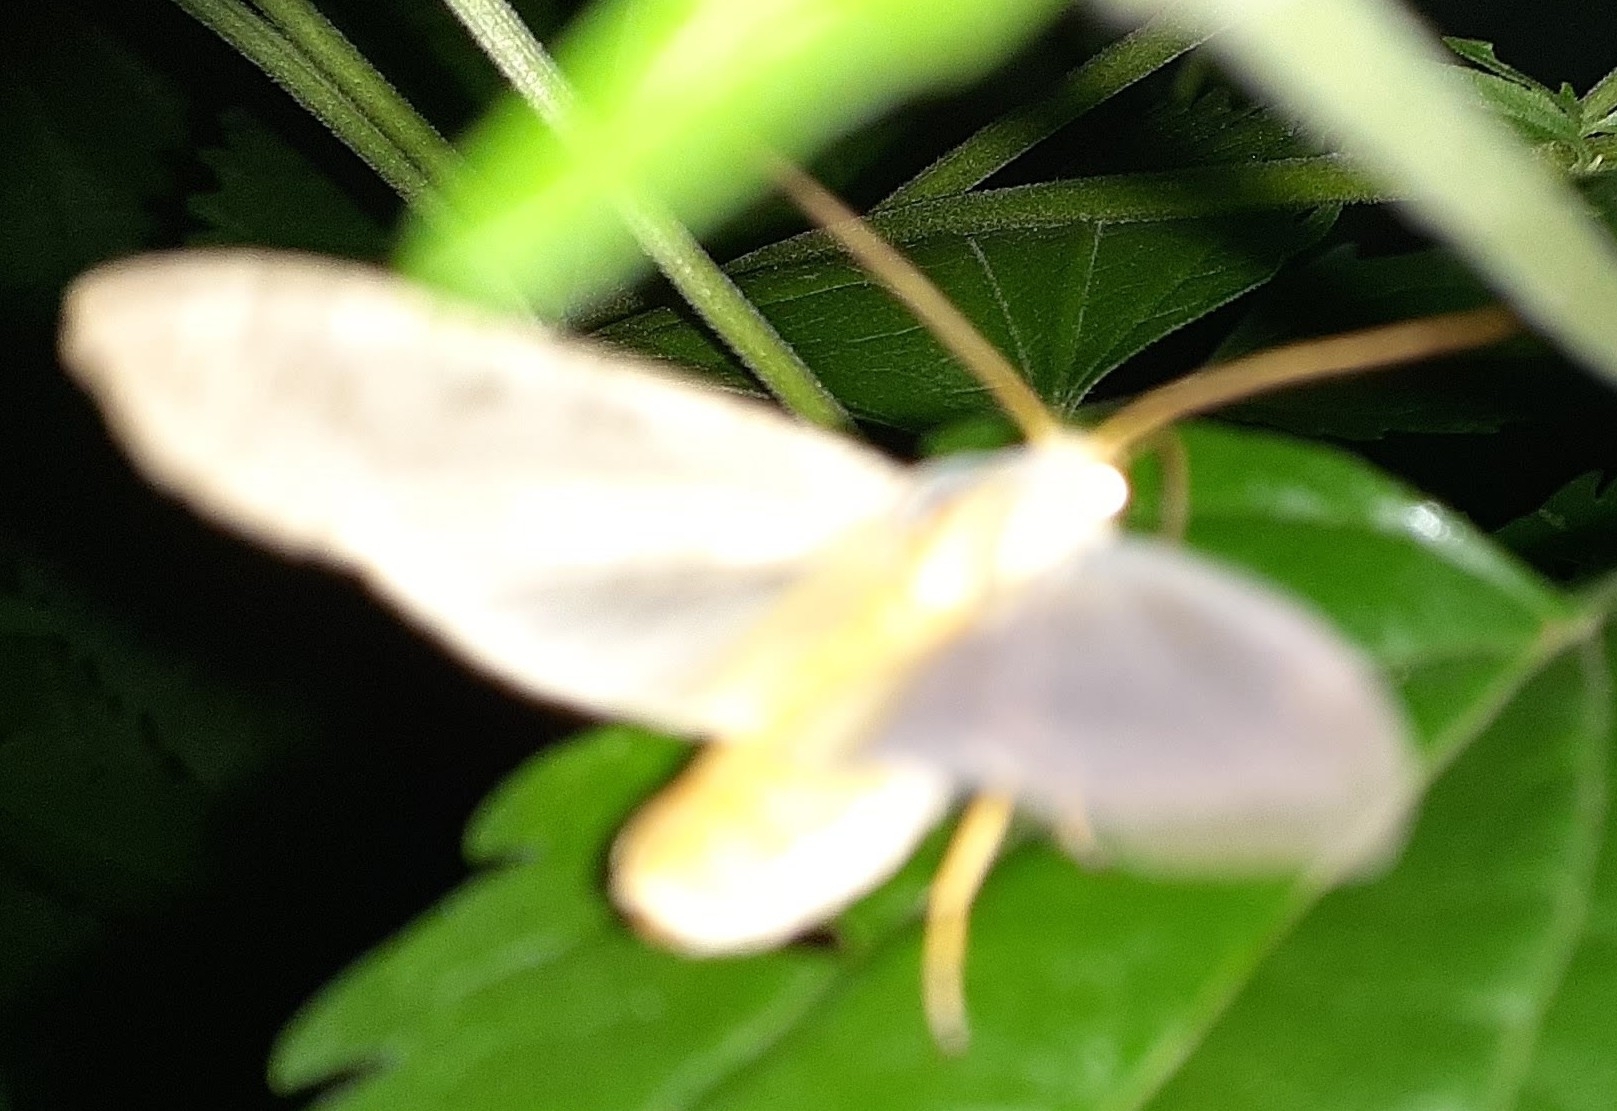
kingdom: Animalia
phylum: Arthropoda
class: Insecta
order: Lepidoptera
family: Erebidae
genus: Halysidota
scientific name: Halysidota
